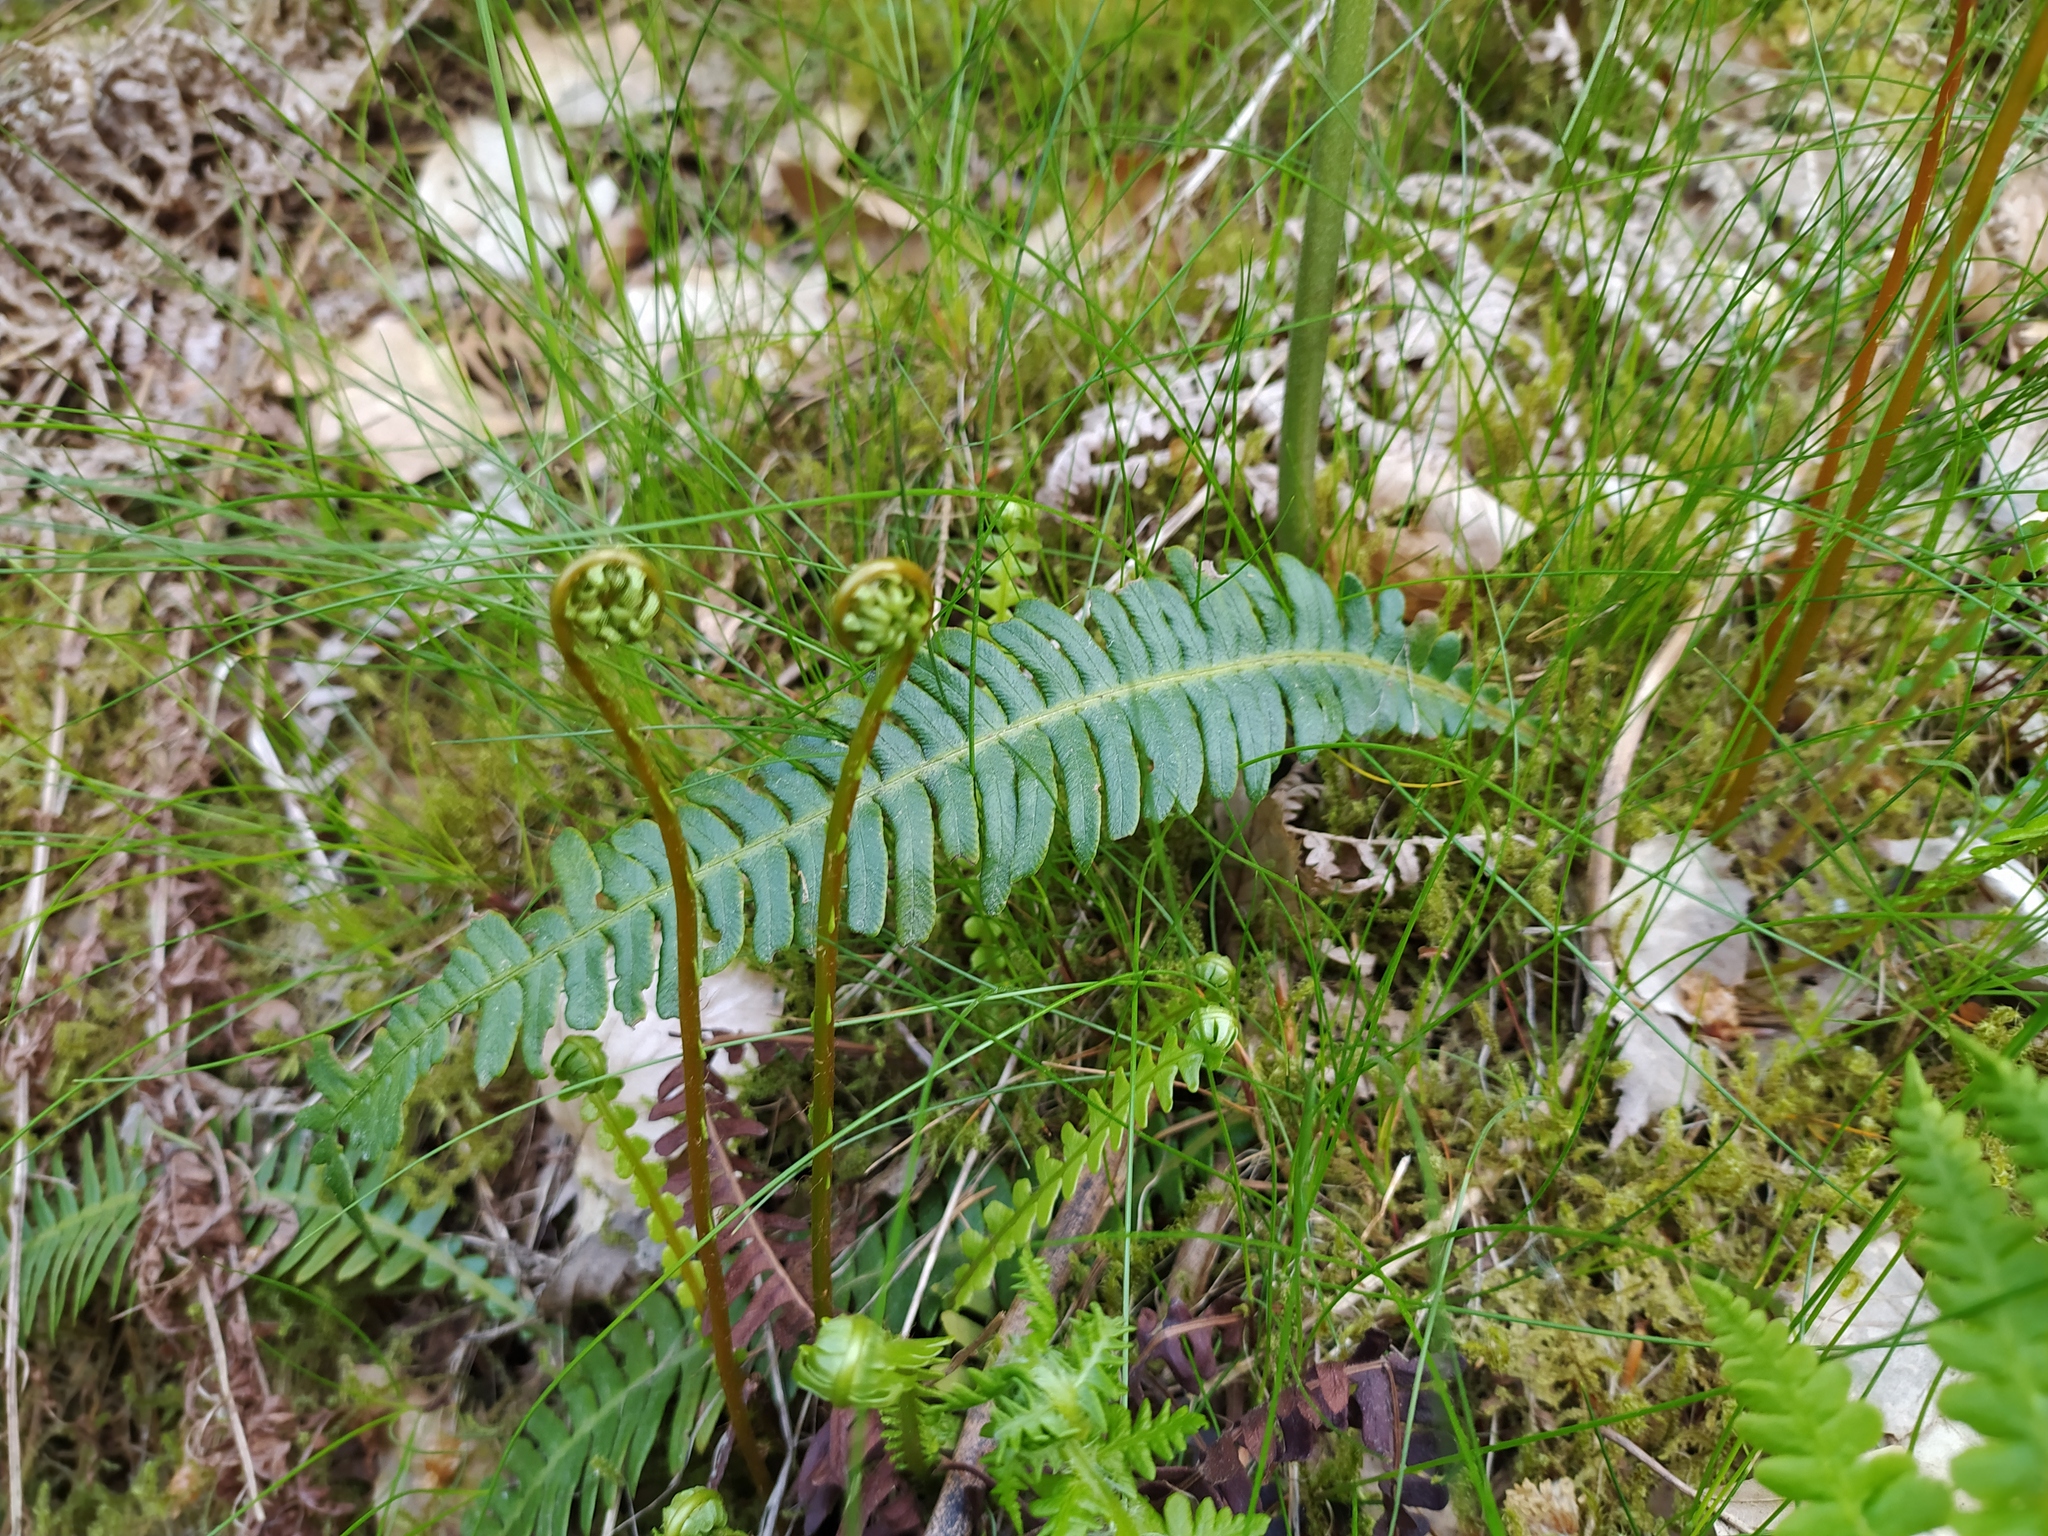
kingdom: Plantae
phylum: Tracheophyta
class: Polypodiopsida
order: Polypodiales
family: Blechnaceae
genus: Struthiopteris
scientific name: Struthiopteris spicant
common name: Deer fern
